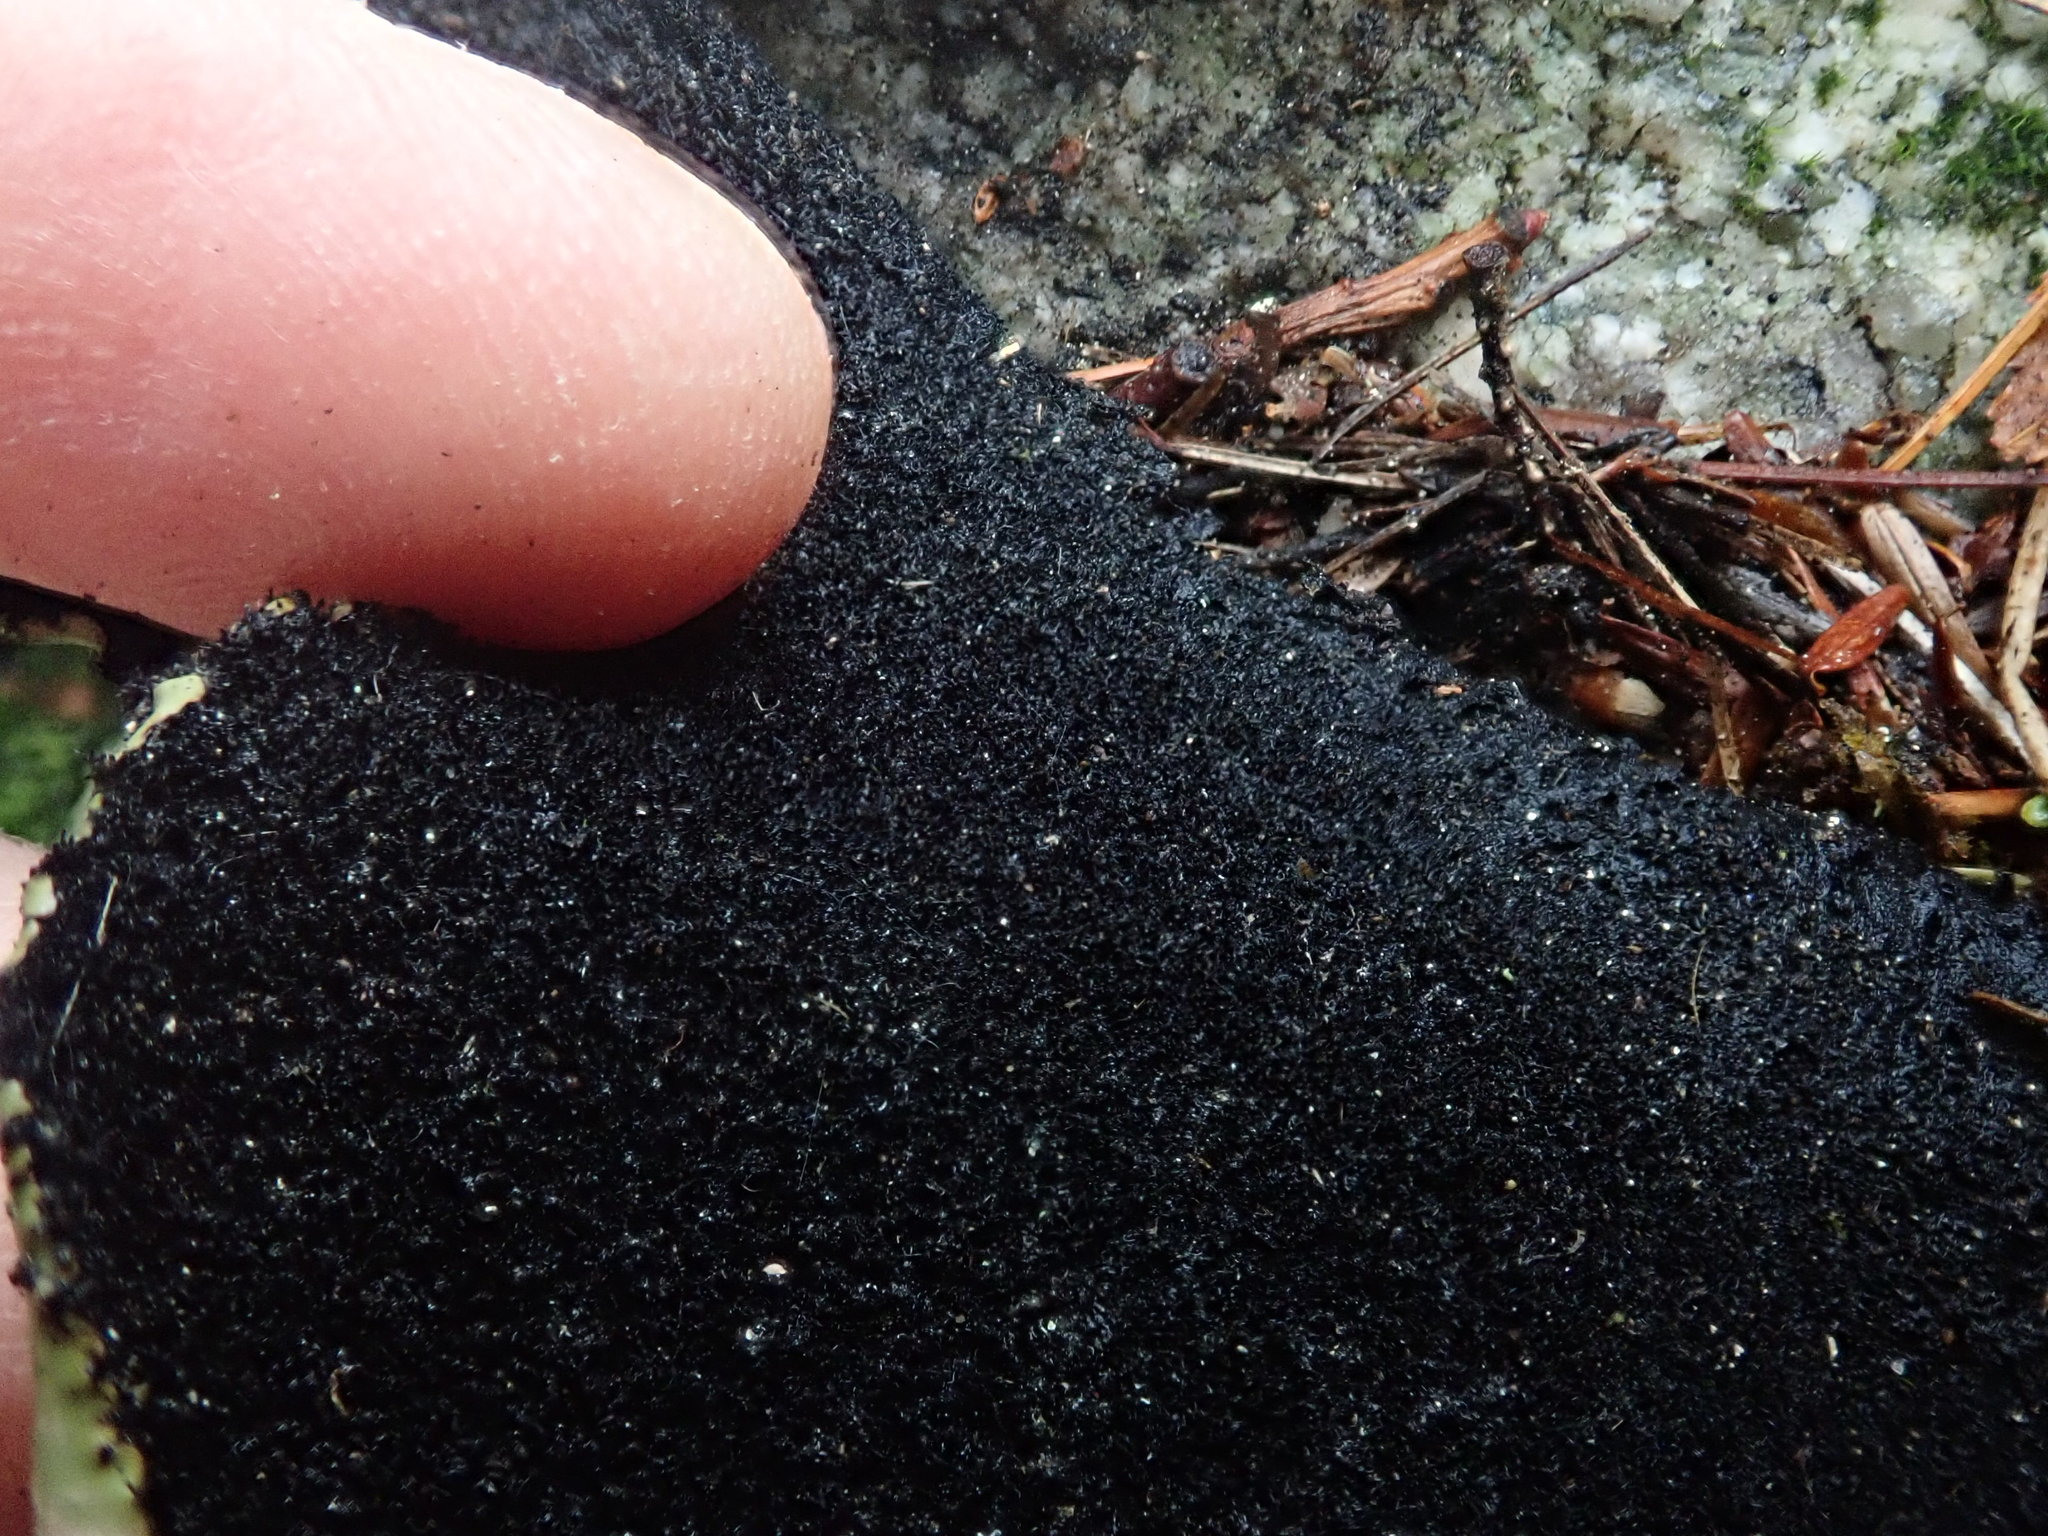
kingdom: Fungi
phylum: Ascomycota
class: Lecanoromycetes
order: Umbilicariales
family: Umbilicariaceae
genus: Umbilicaria
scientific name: Umbilicaria mammulata
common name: Smooth rock tripe
